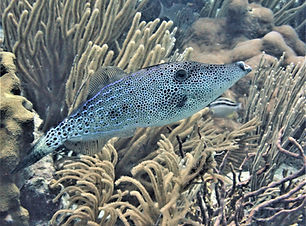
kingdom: Animalia
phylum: Chordata
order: Tetraodontiformes
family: Monacanthidae
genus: Aluterus
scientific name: Aluterus scriptus
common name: Scribbled leatherjacket filefish
